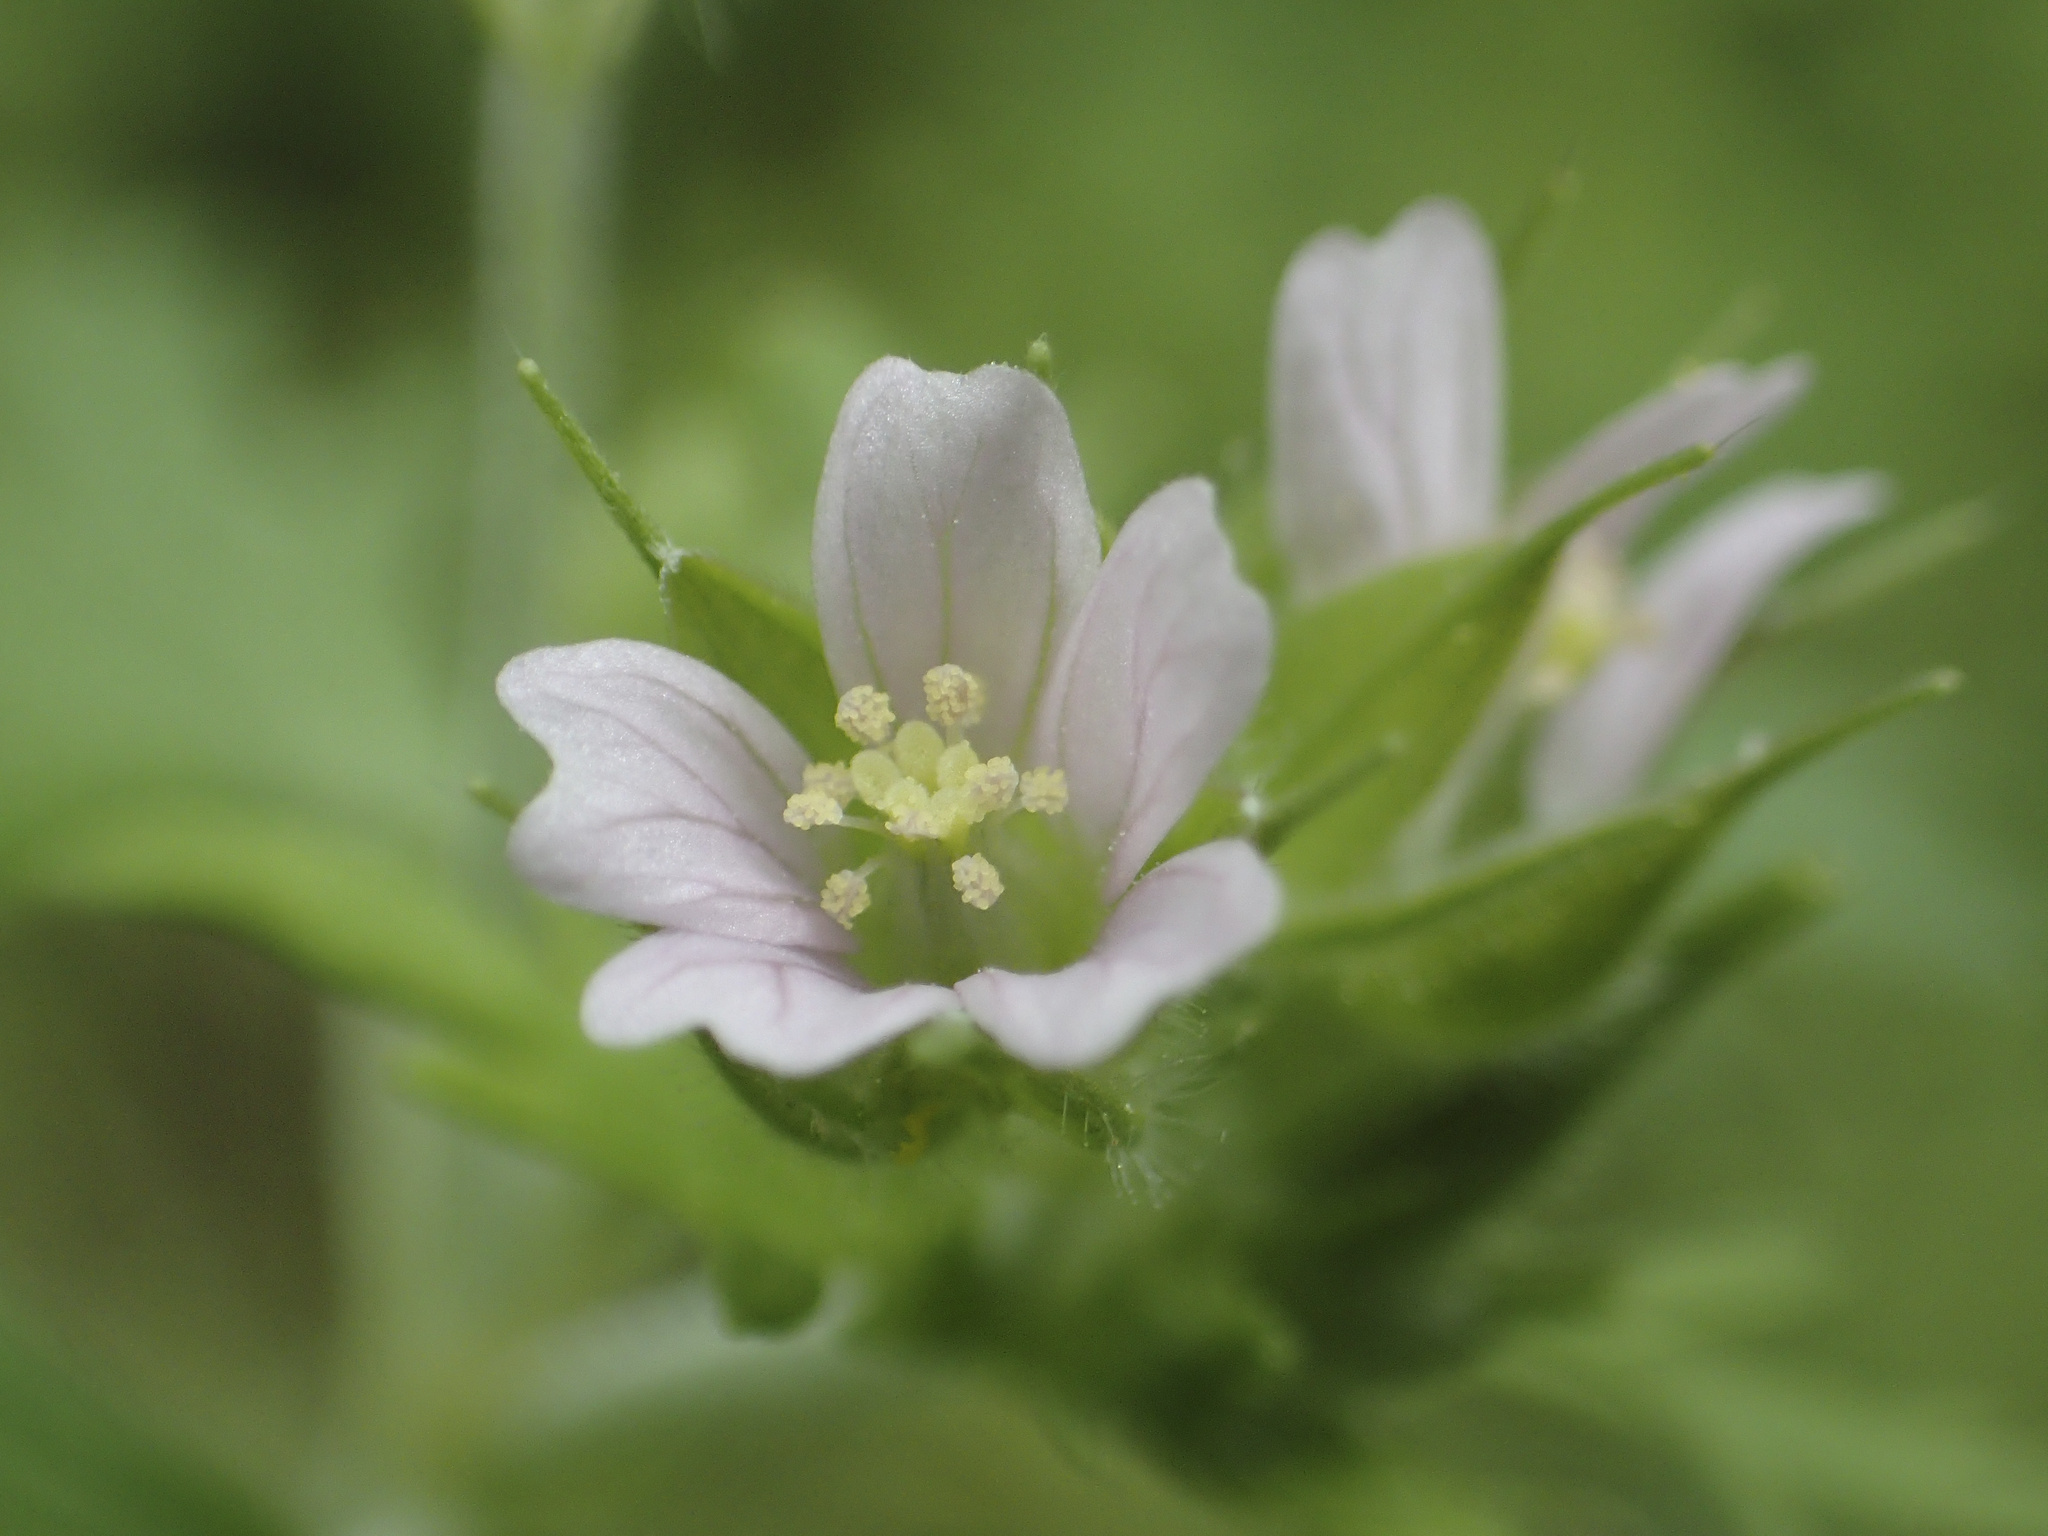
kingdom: Plantae
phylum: Tracheophyta
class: Magnoliopsida
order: Geraniales
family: Geraniaceae
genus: Geranium
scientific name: Geranium carolinianum
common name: Carolina crane's-bill
